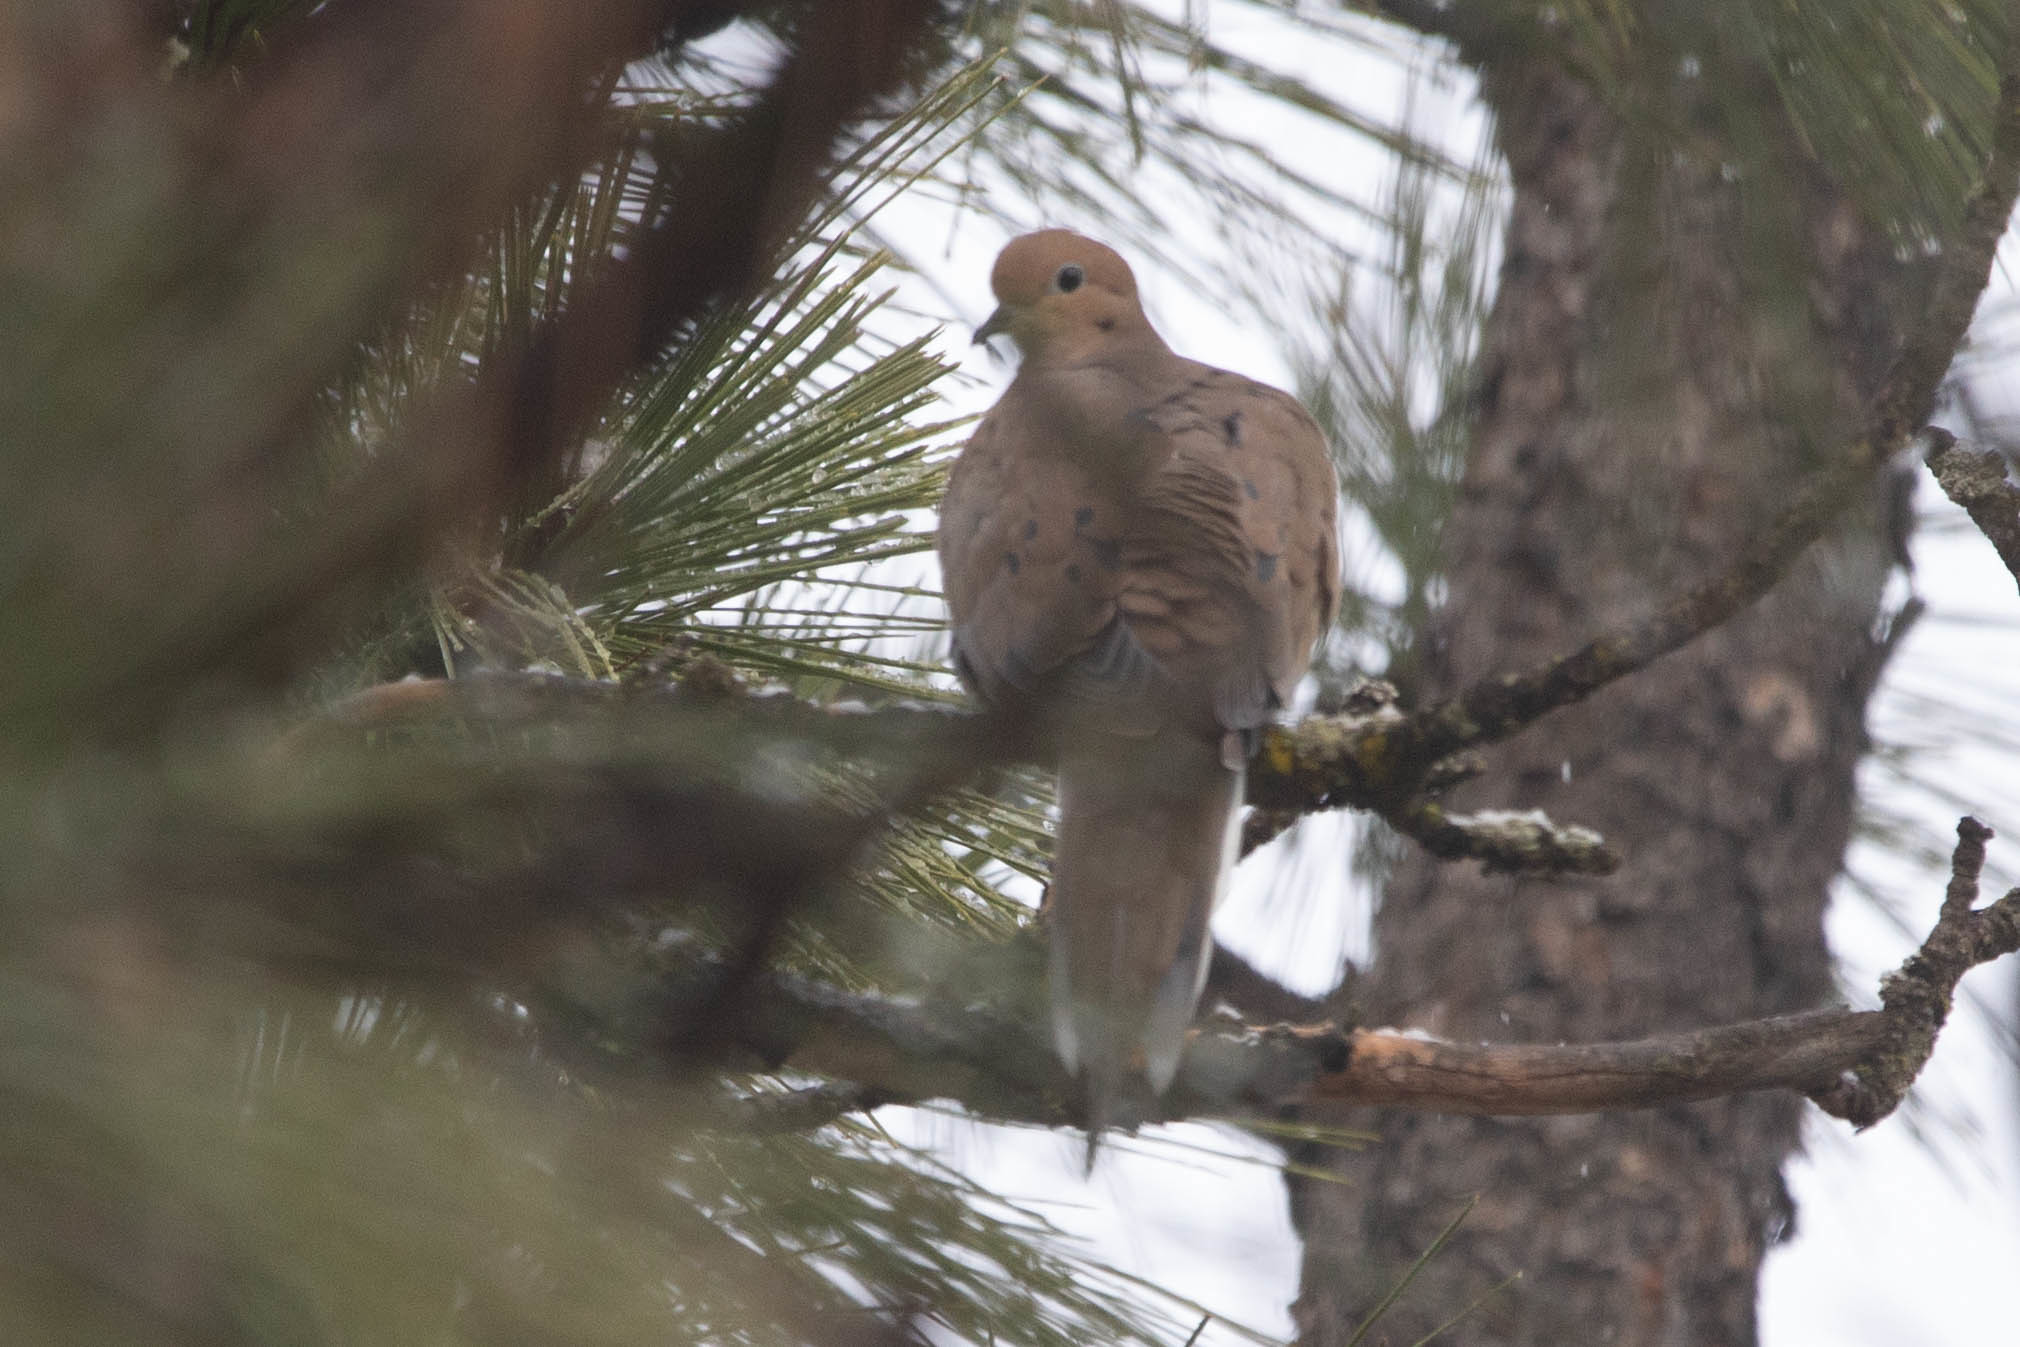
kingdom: Animalia
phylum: Chordata
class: Aves
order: Columbiformes
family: Columbidae
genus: Zenaida
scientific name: Zenaida macroura
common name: Mourning dove
